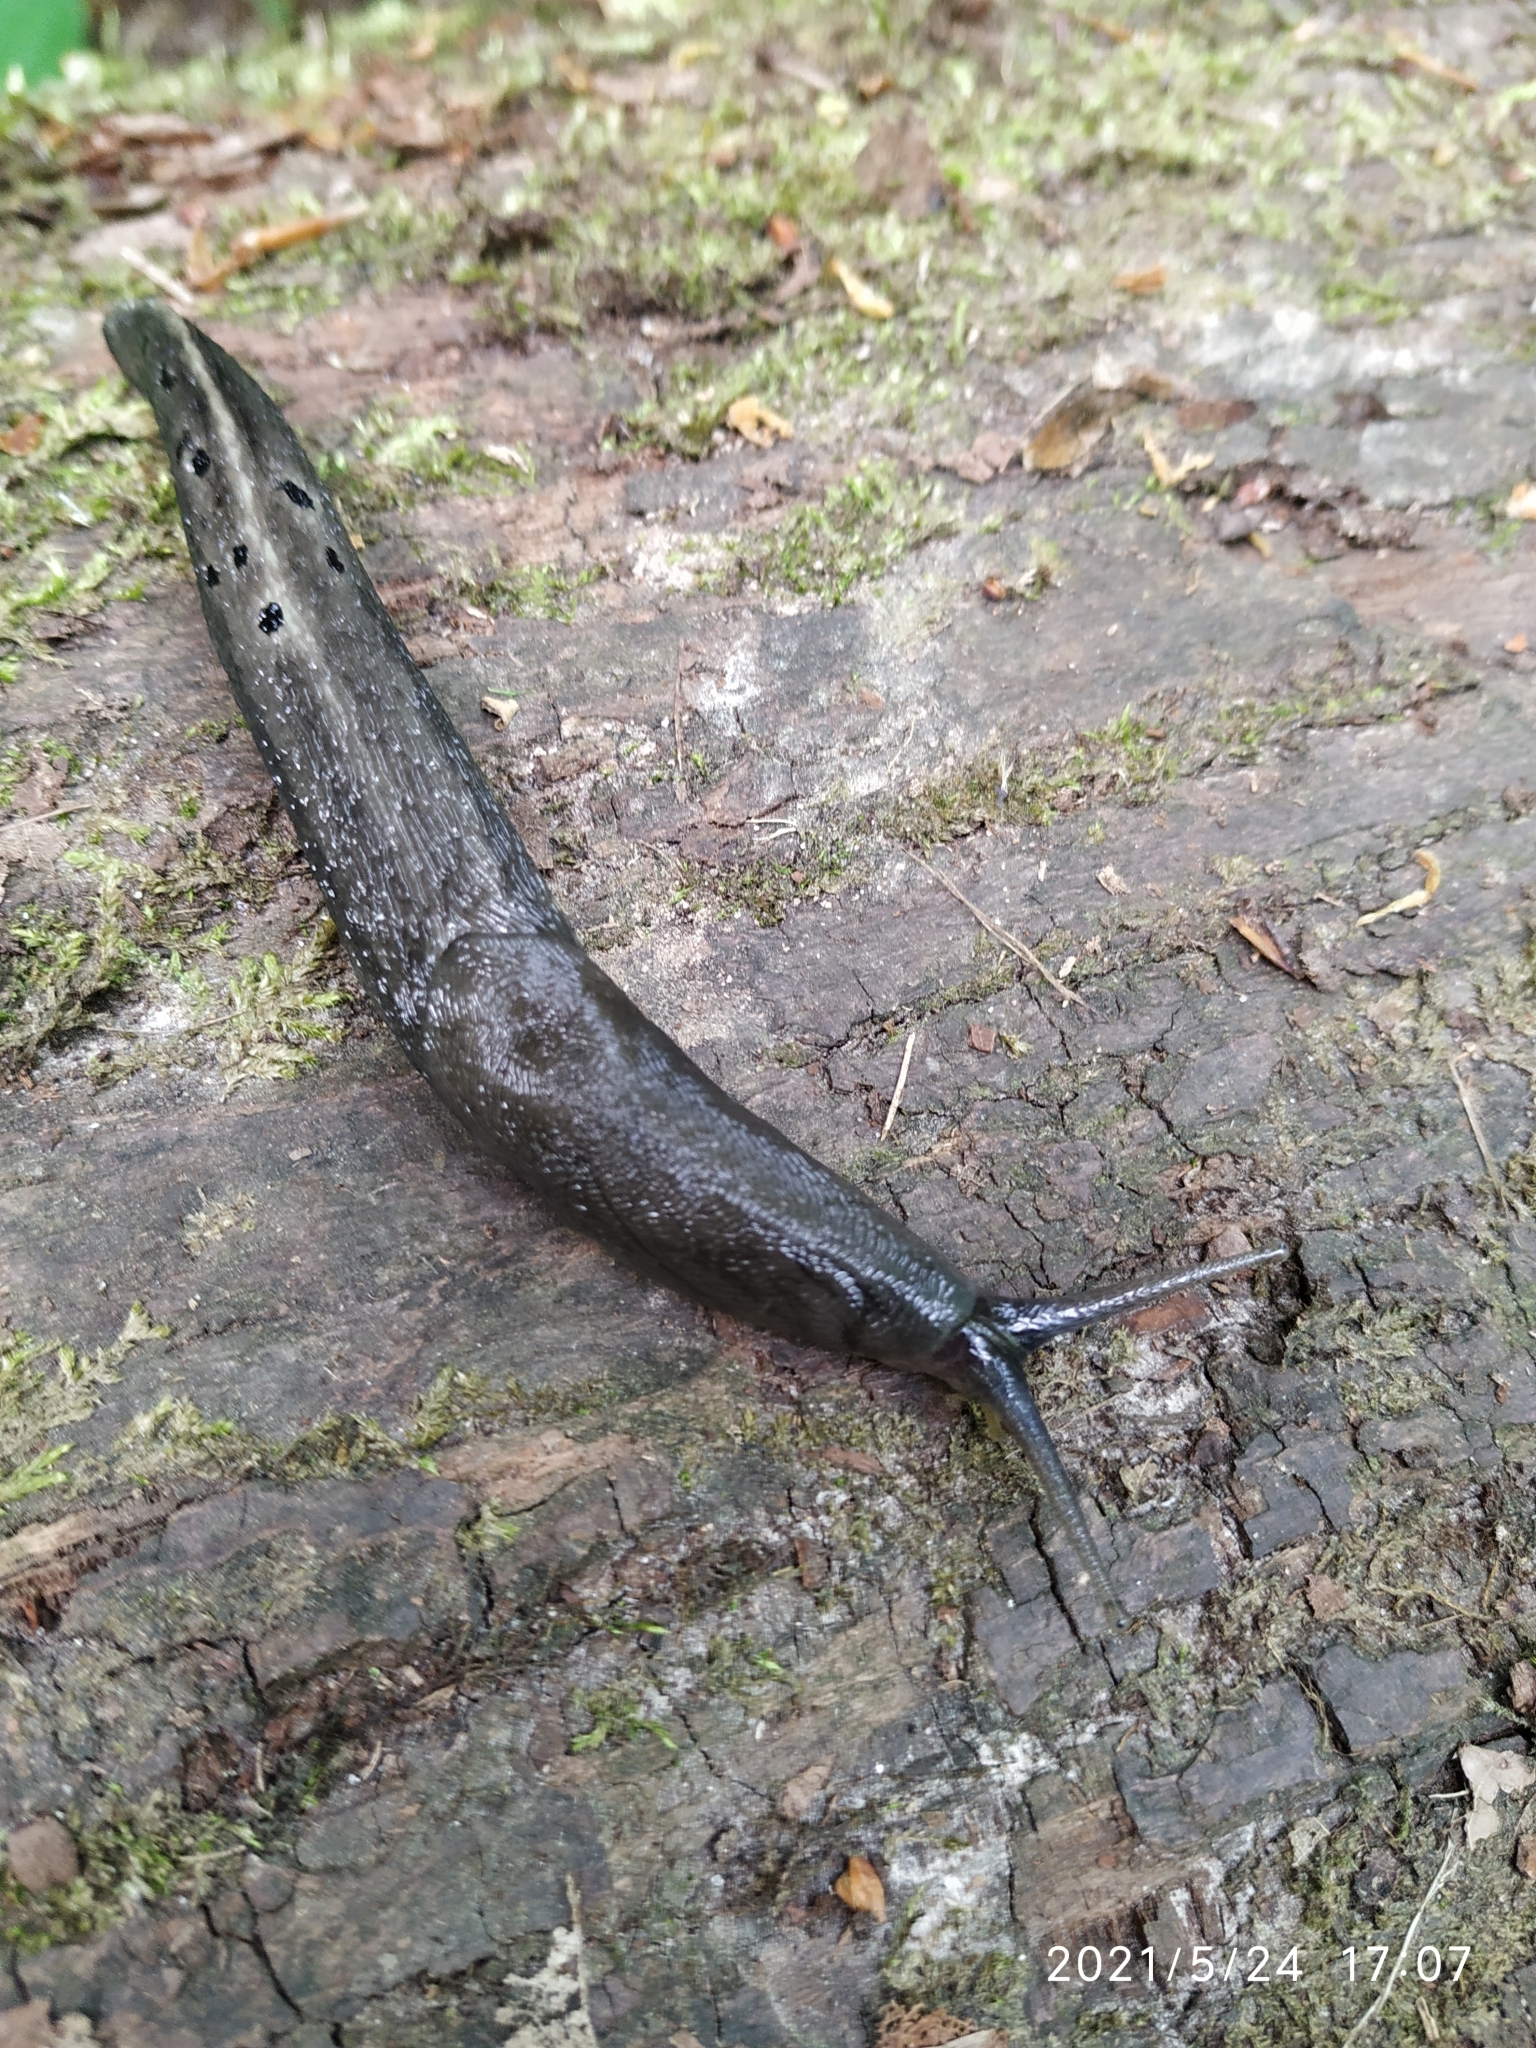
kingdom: Animalia
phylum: Mollusca
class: Gastropoda
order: Stylommatophora
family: Limacidae
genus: Limax
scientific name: Limax cinereoniger
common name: Ash-black slug
